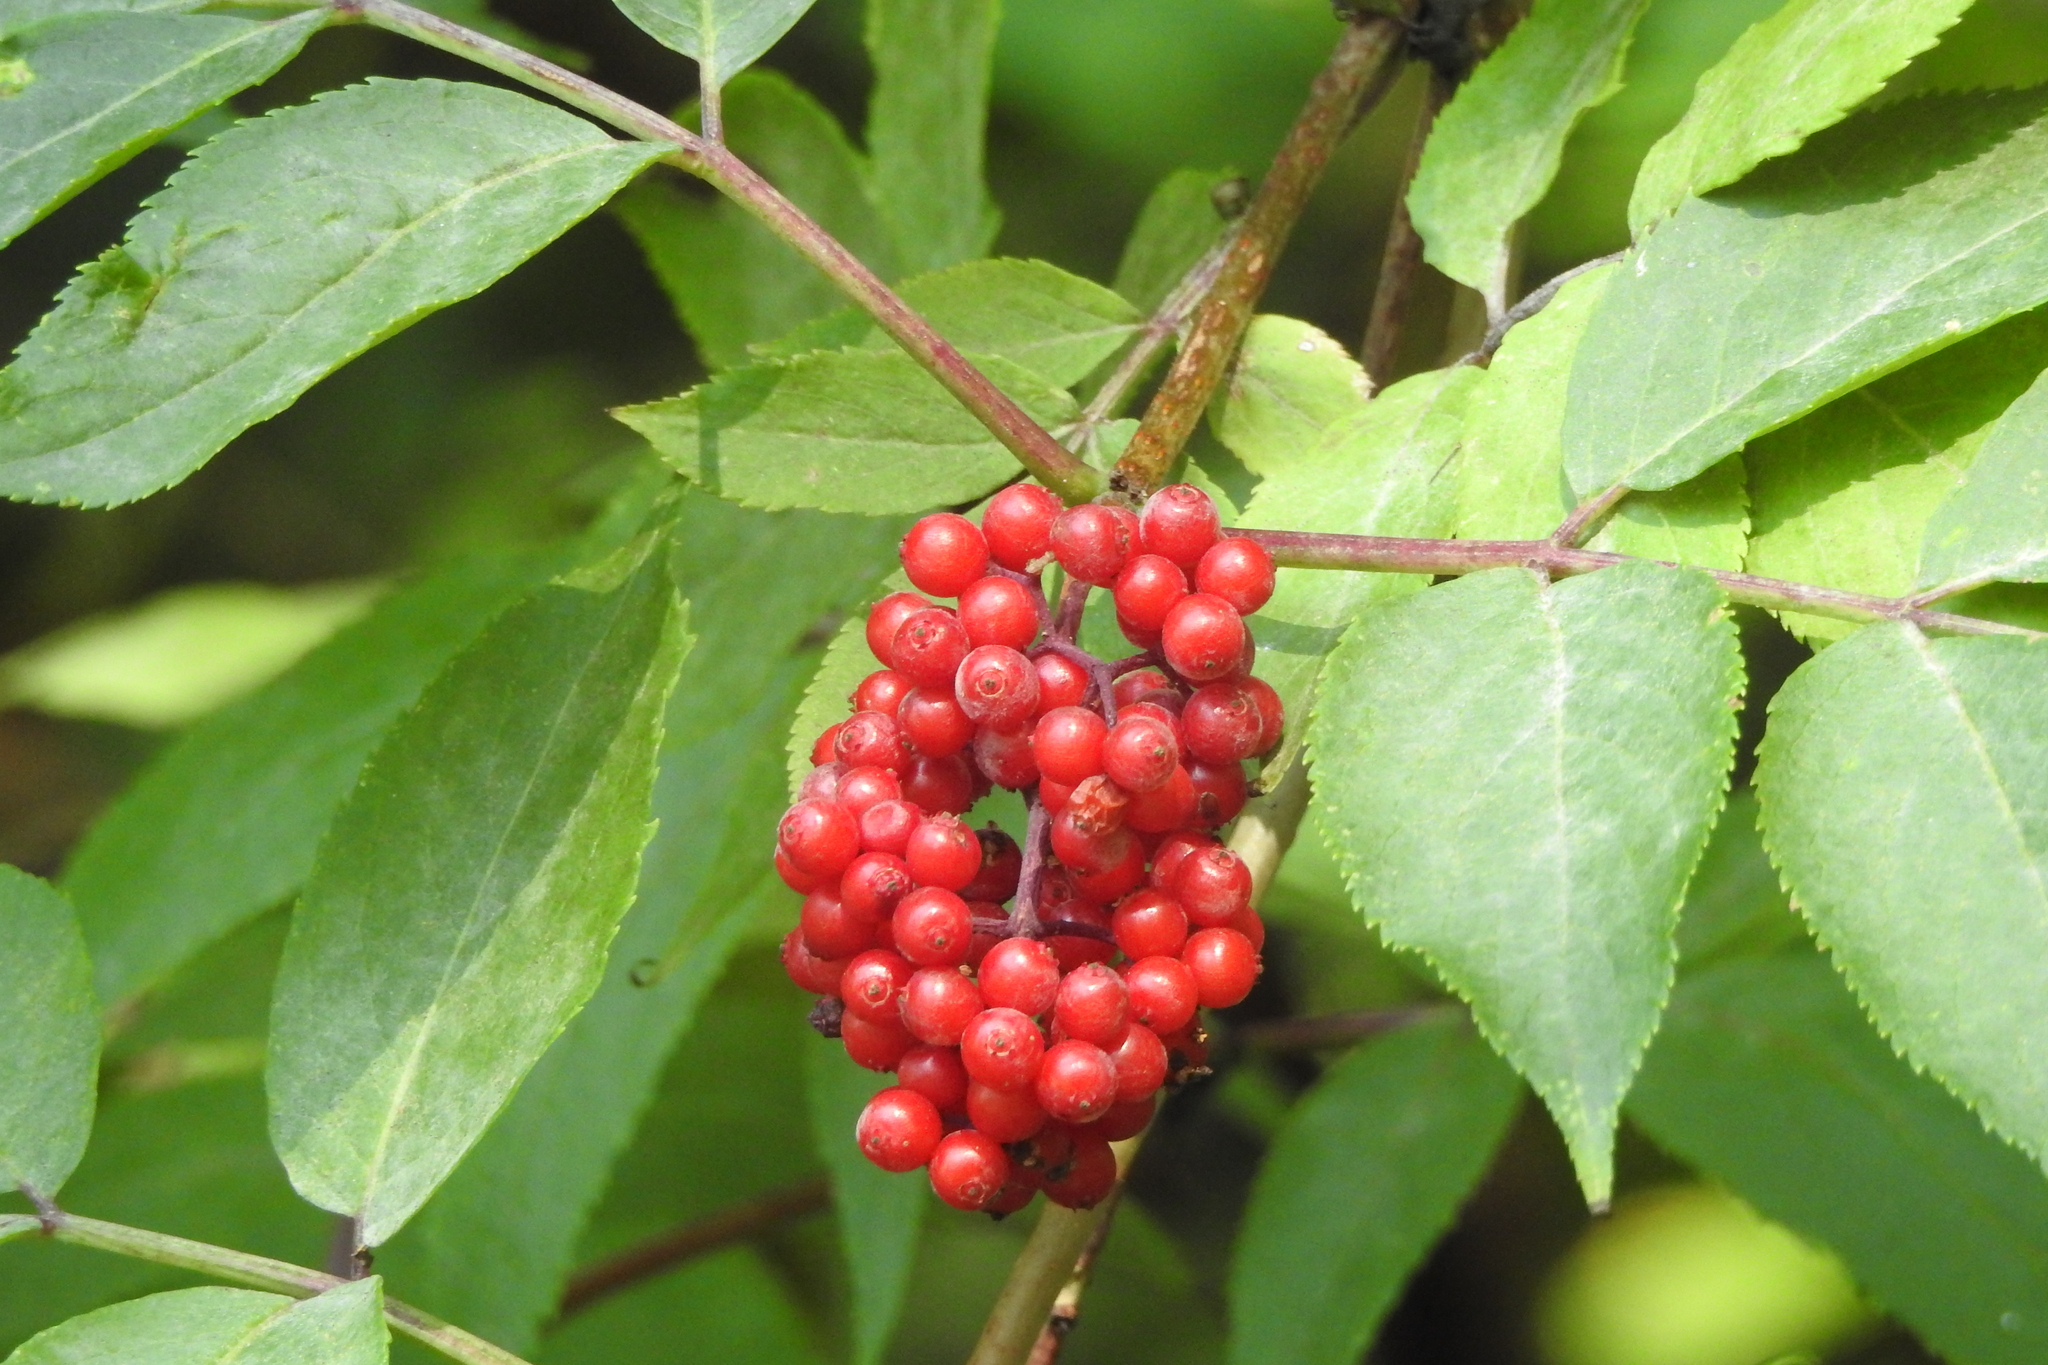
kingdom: Plantae
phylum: Tracheophyta
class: Magnoliopsida
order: Dipsacales
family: Viburnaceae
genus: Sambucus
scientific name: Sambucus racemosa
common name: Red-berried elder
